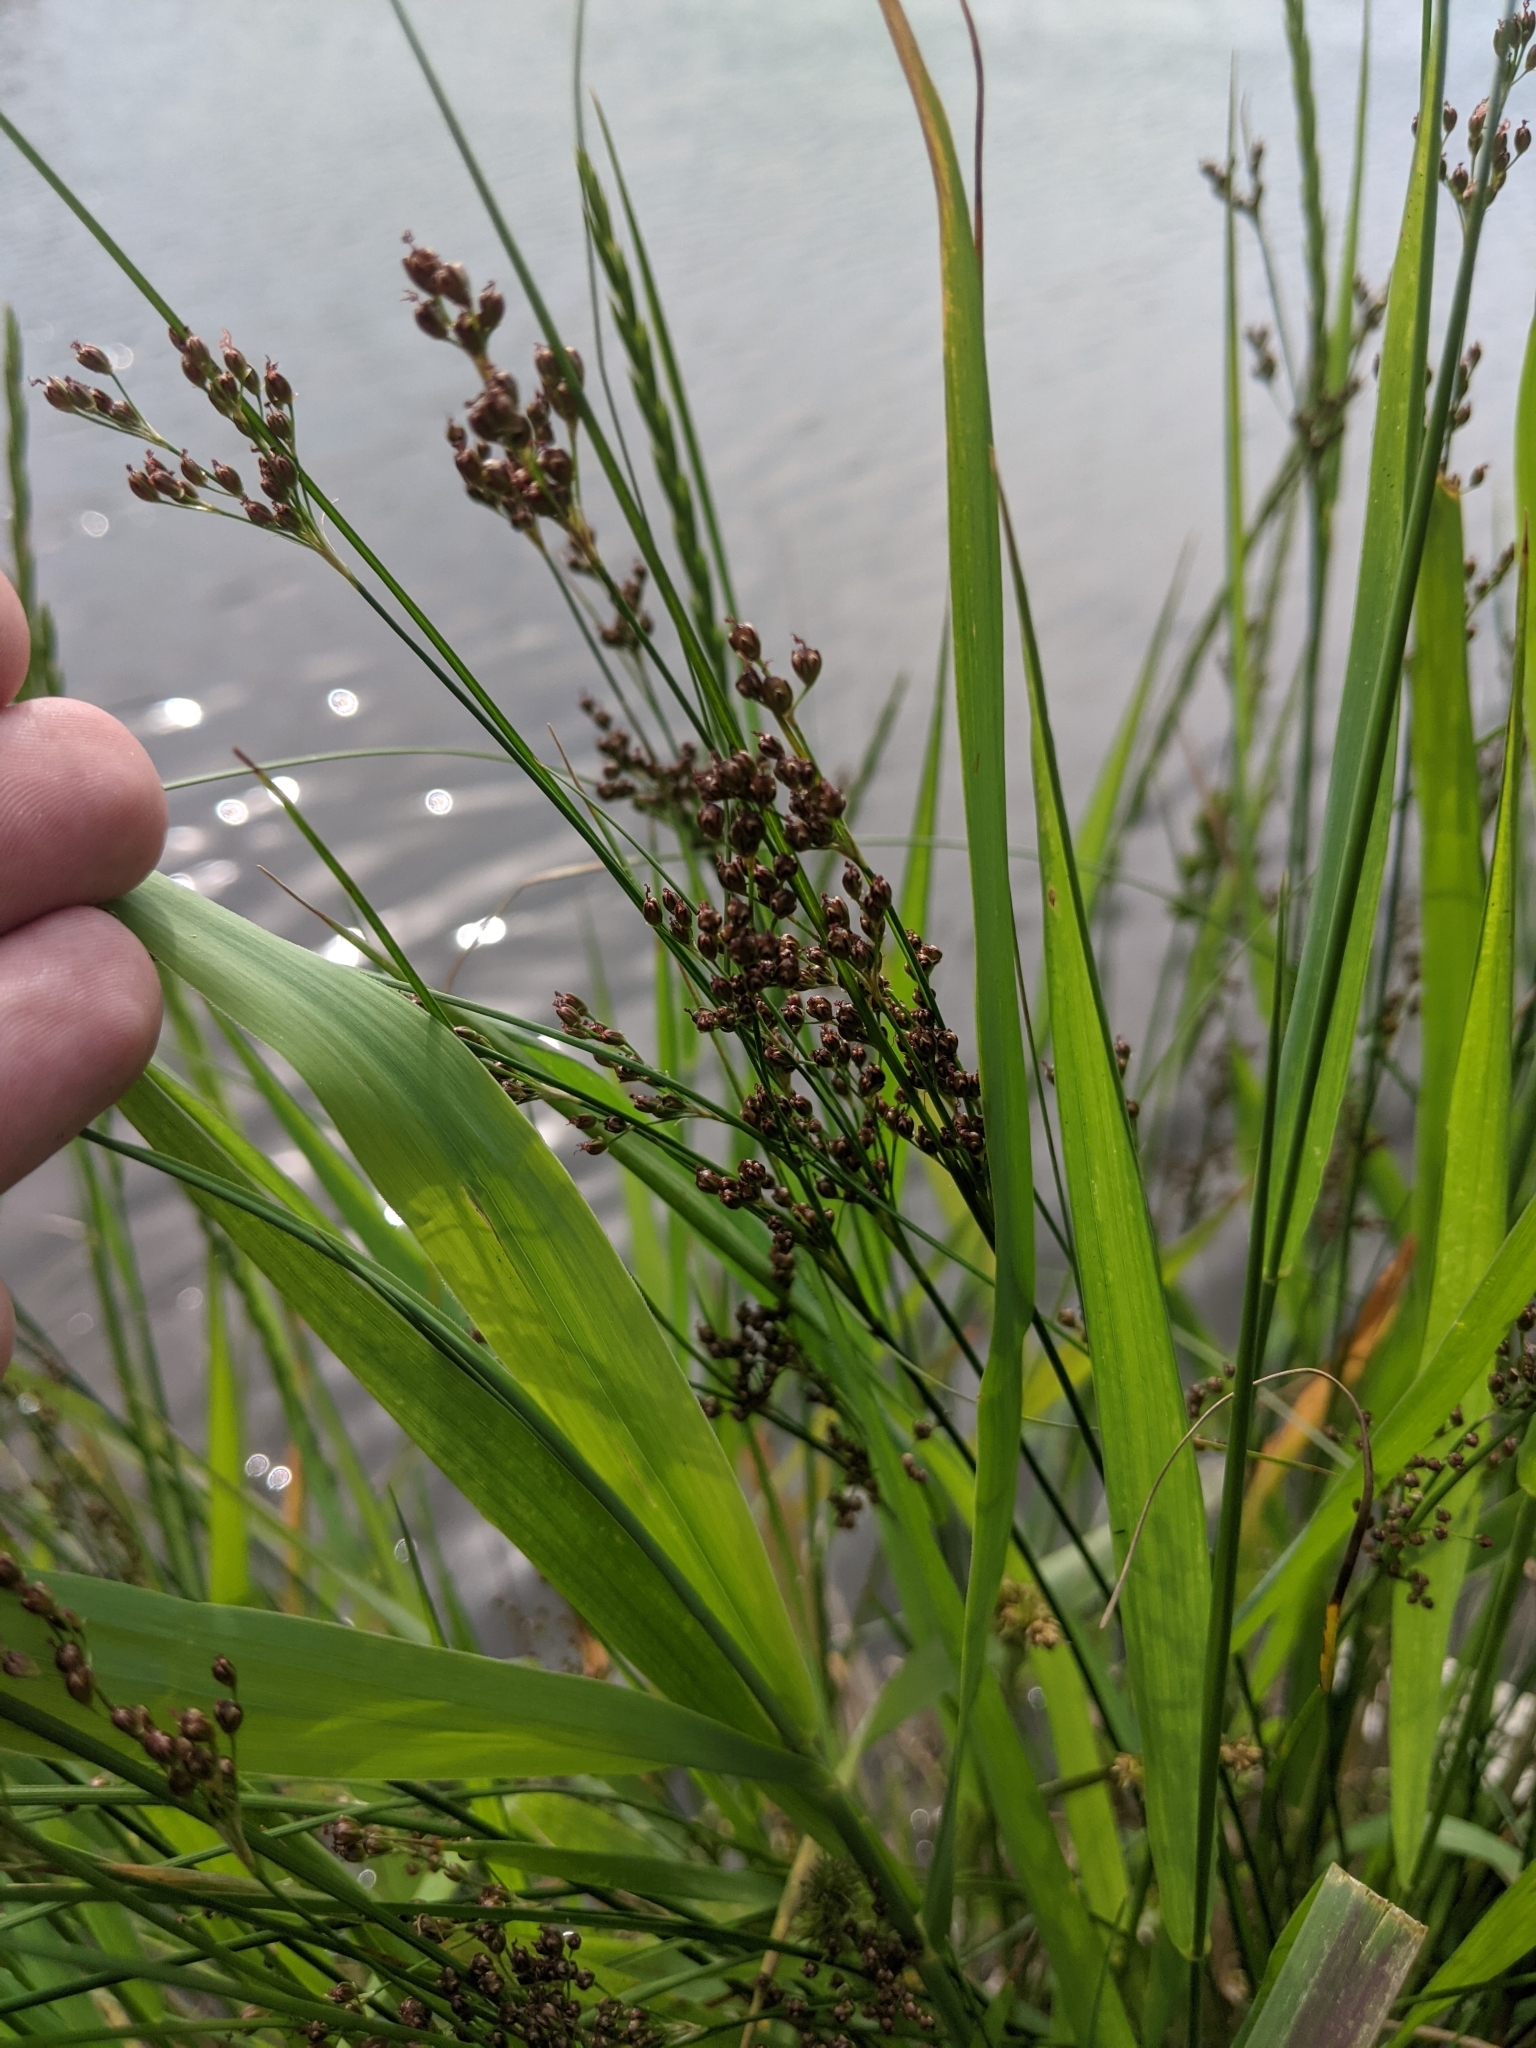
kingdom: Plantae
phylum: Tracheophyta
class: Liliopsida
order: Poales
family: Juncaceae
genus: Juncus
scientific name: Juncus compressus
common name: Round-fruited rush
